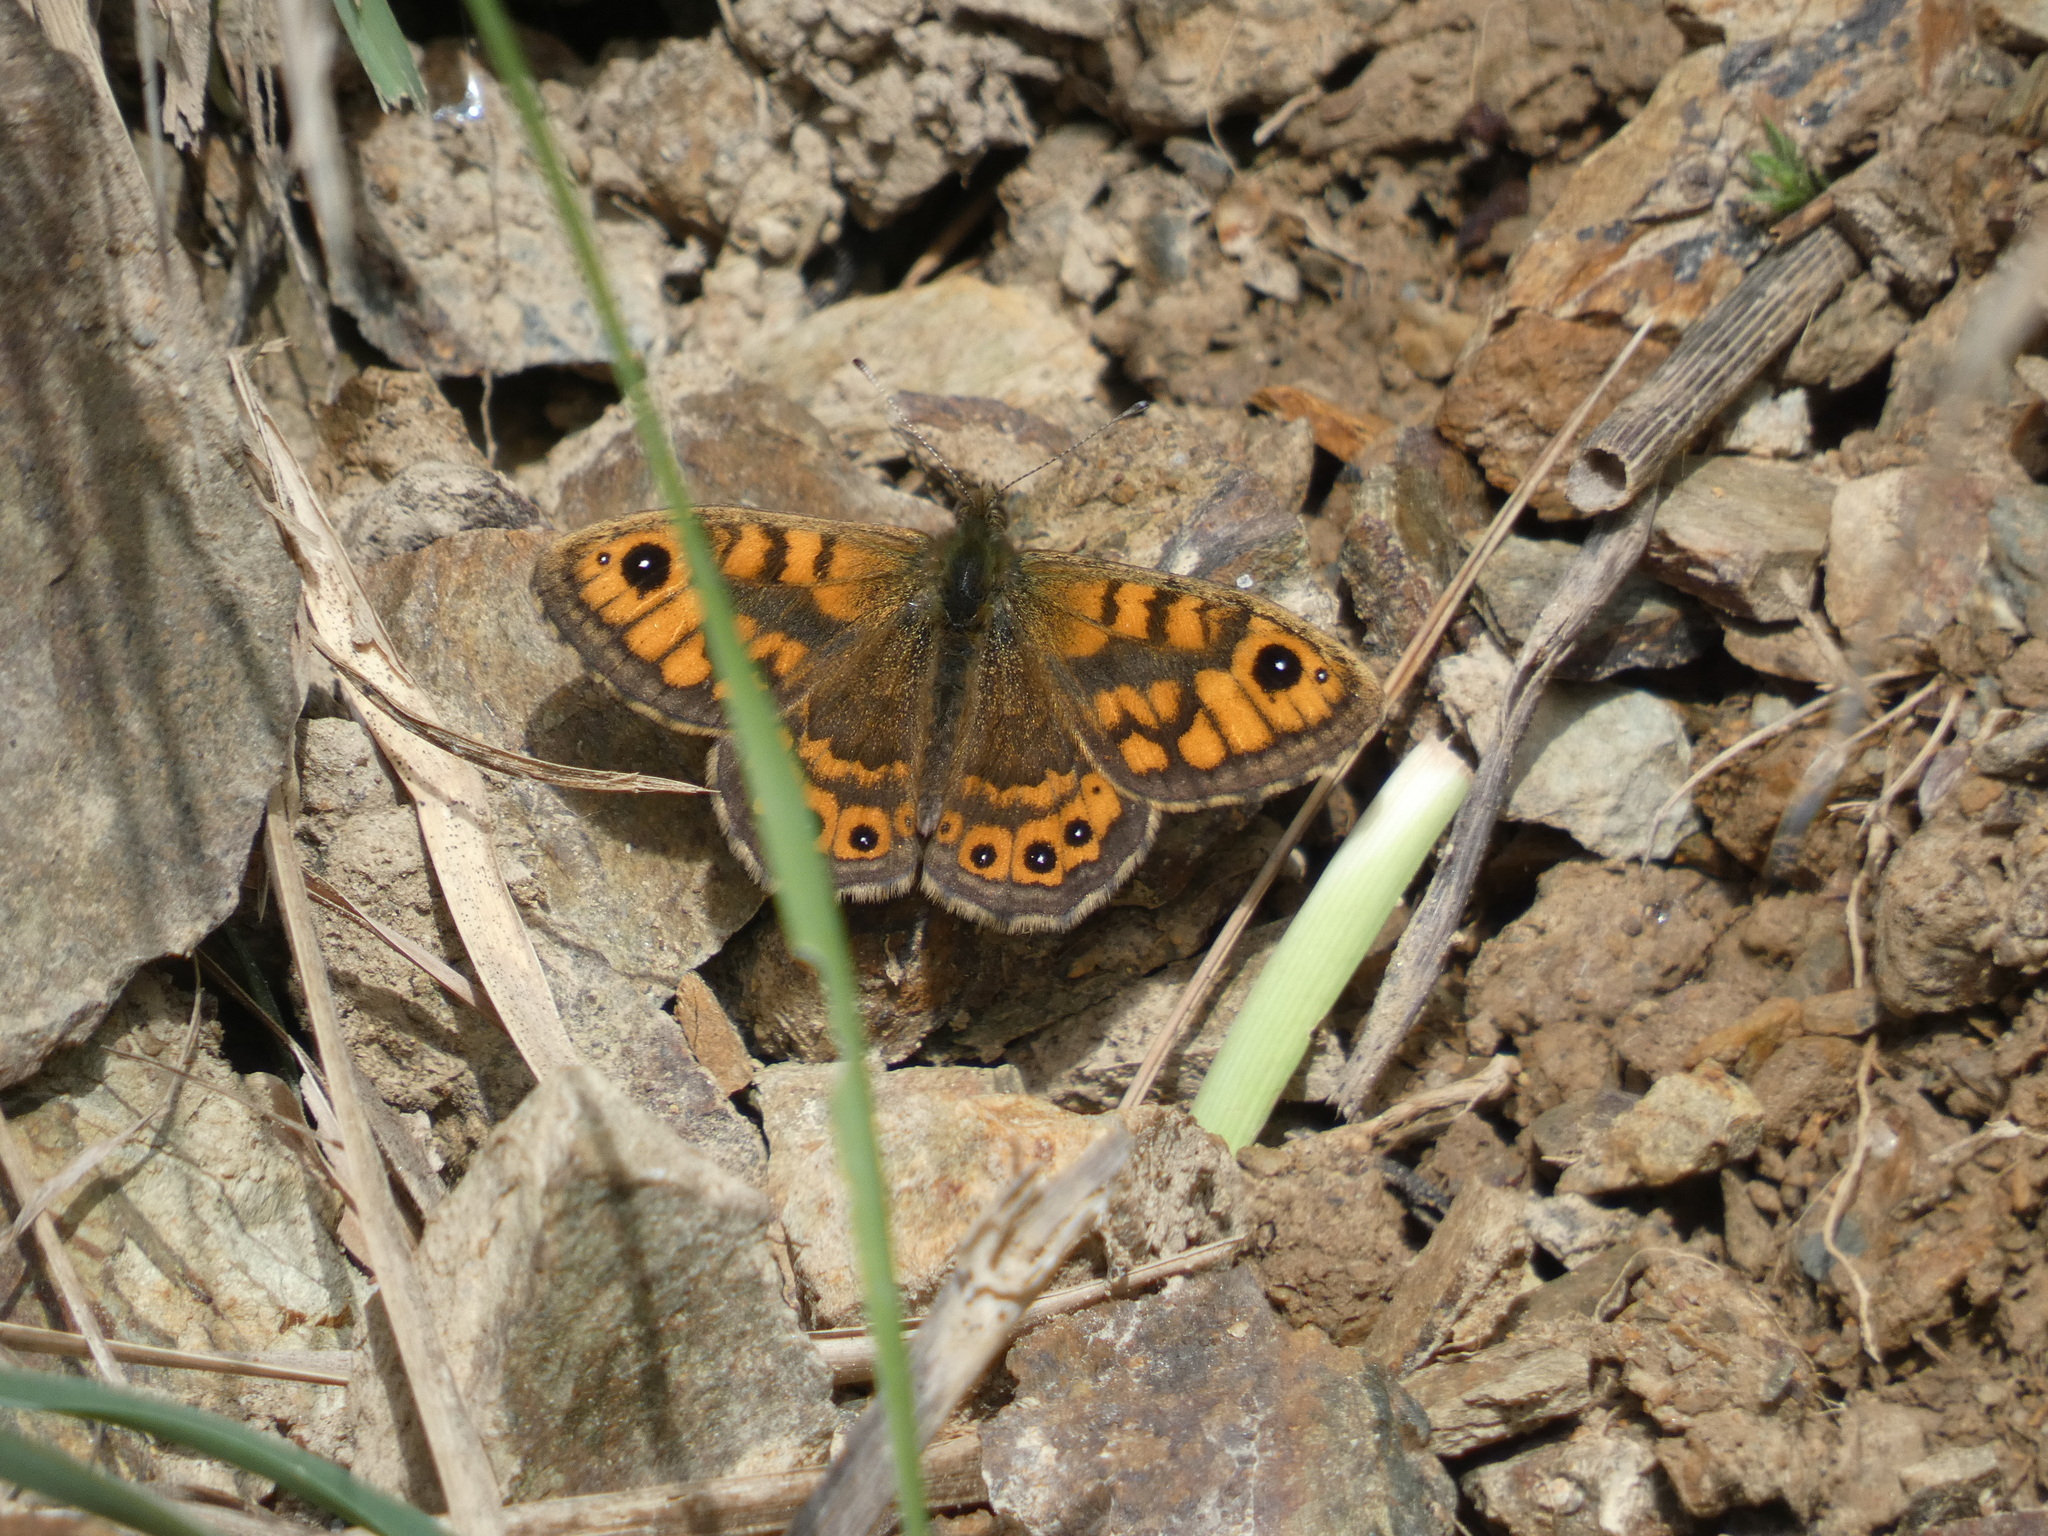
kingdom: Animalia
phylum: Arthropoda
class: Insecta
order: Lepidoptera
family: Nymphalidae
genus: Pararge
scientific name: Pararge Lasiommata megera
